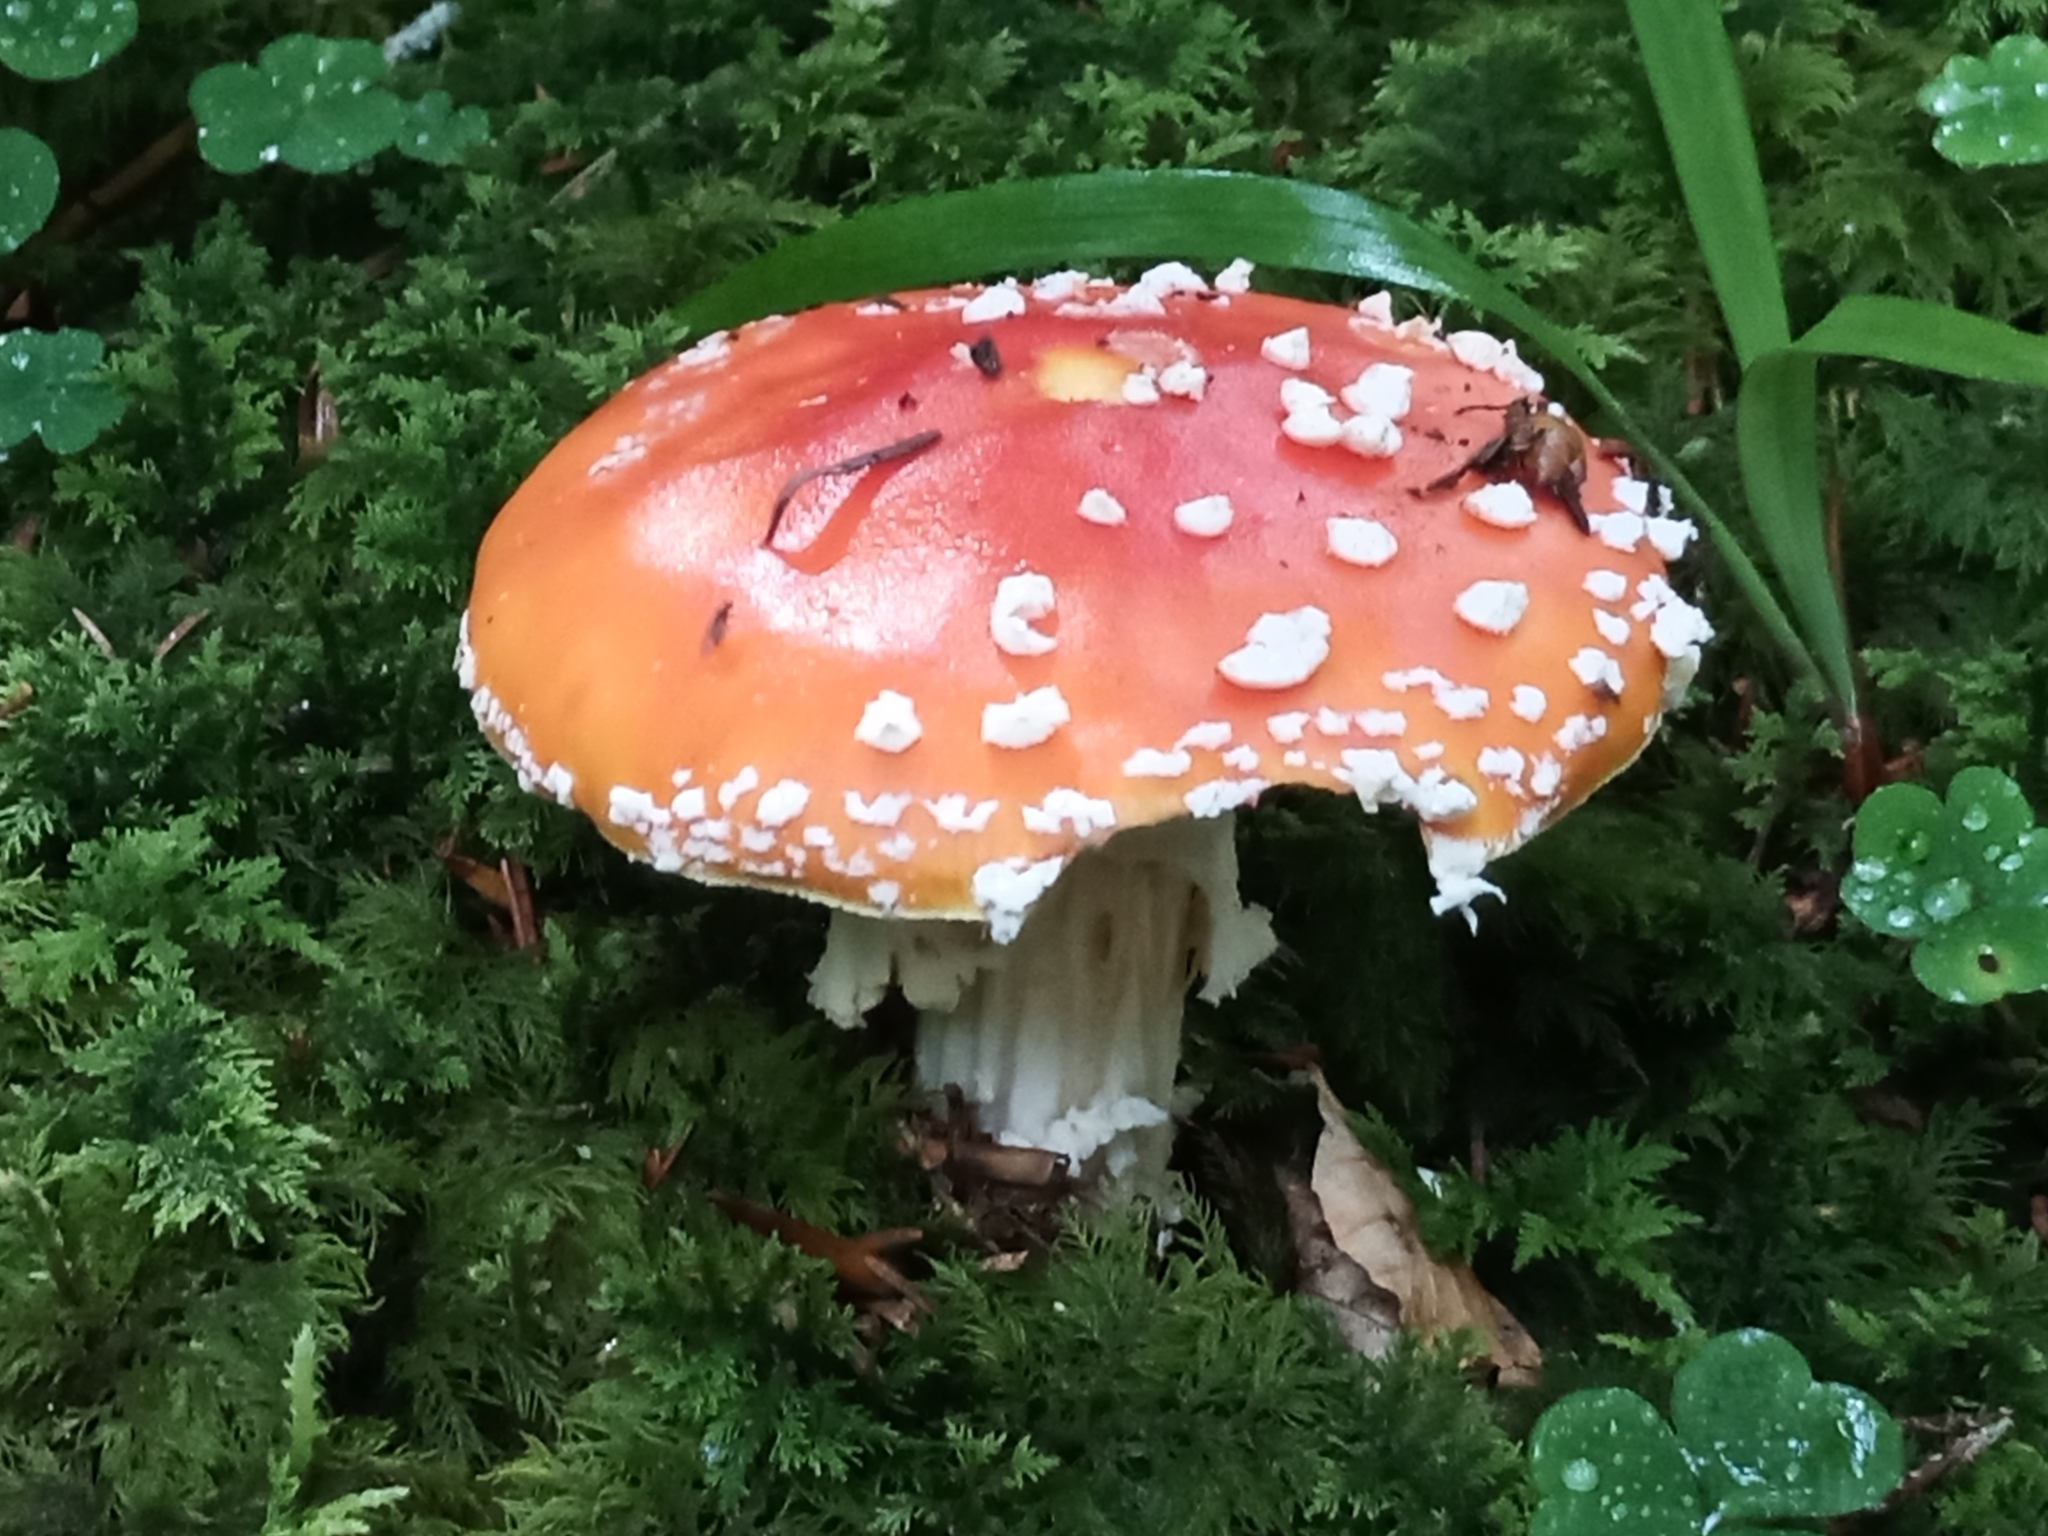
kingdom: Fungi
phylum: Basidiomycota
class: Agaricomycetes
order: Agaricales
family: Amanitaceae
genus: Amanita
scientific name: Amanita muscaria
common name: Fly agaric
